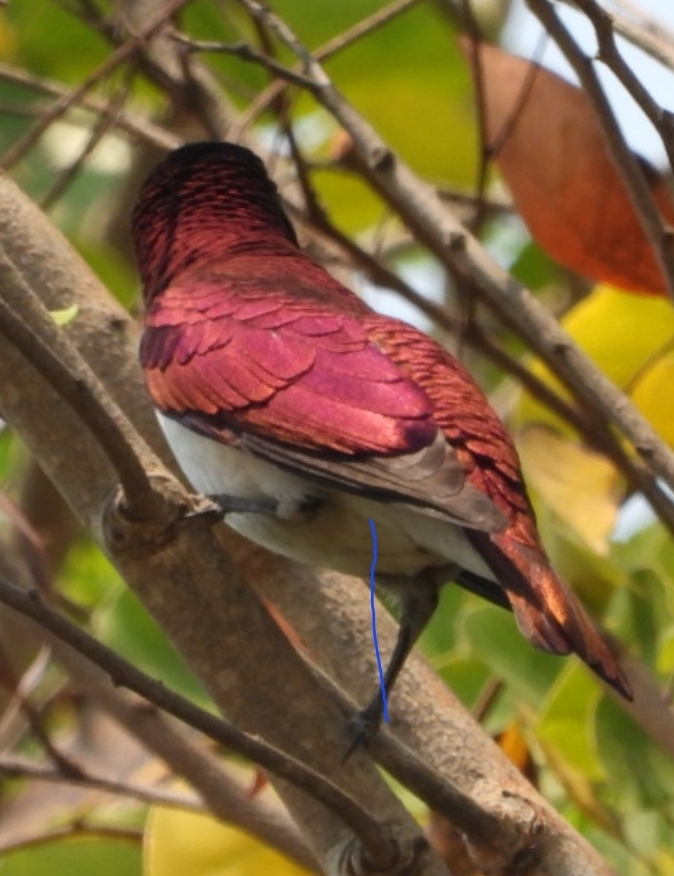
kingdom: Animalia
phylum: Chordata
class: Aves
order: Passeriformes
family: Sturnidae
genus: Cinnyricinclus
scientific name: Cinnyricinclus leucogaster
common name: Violet-backed starling
